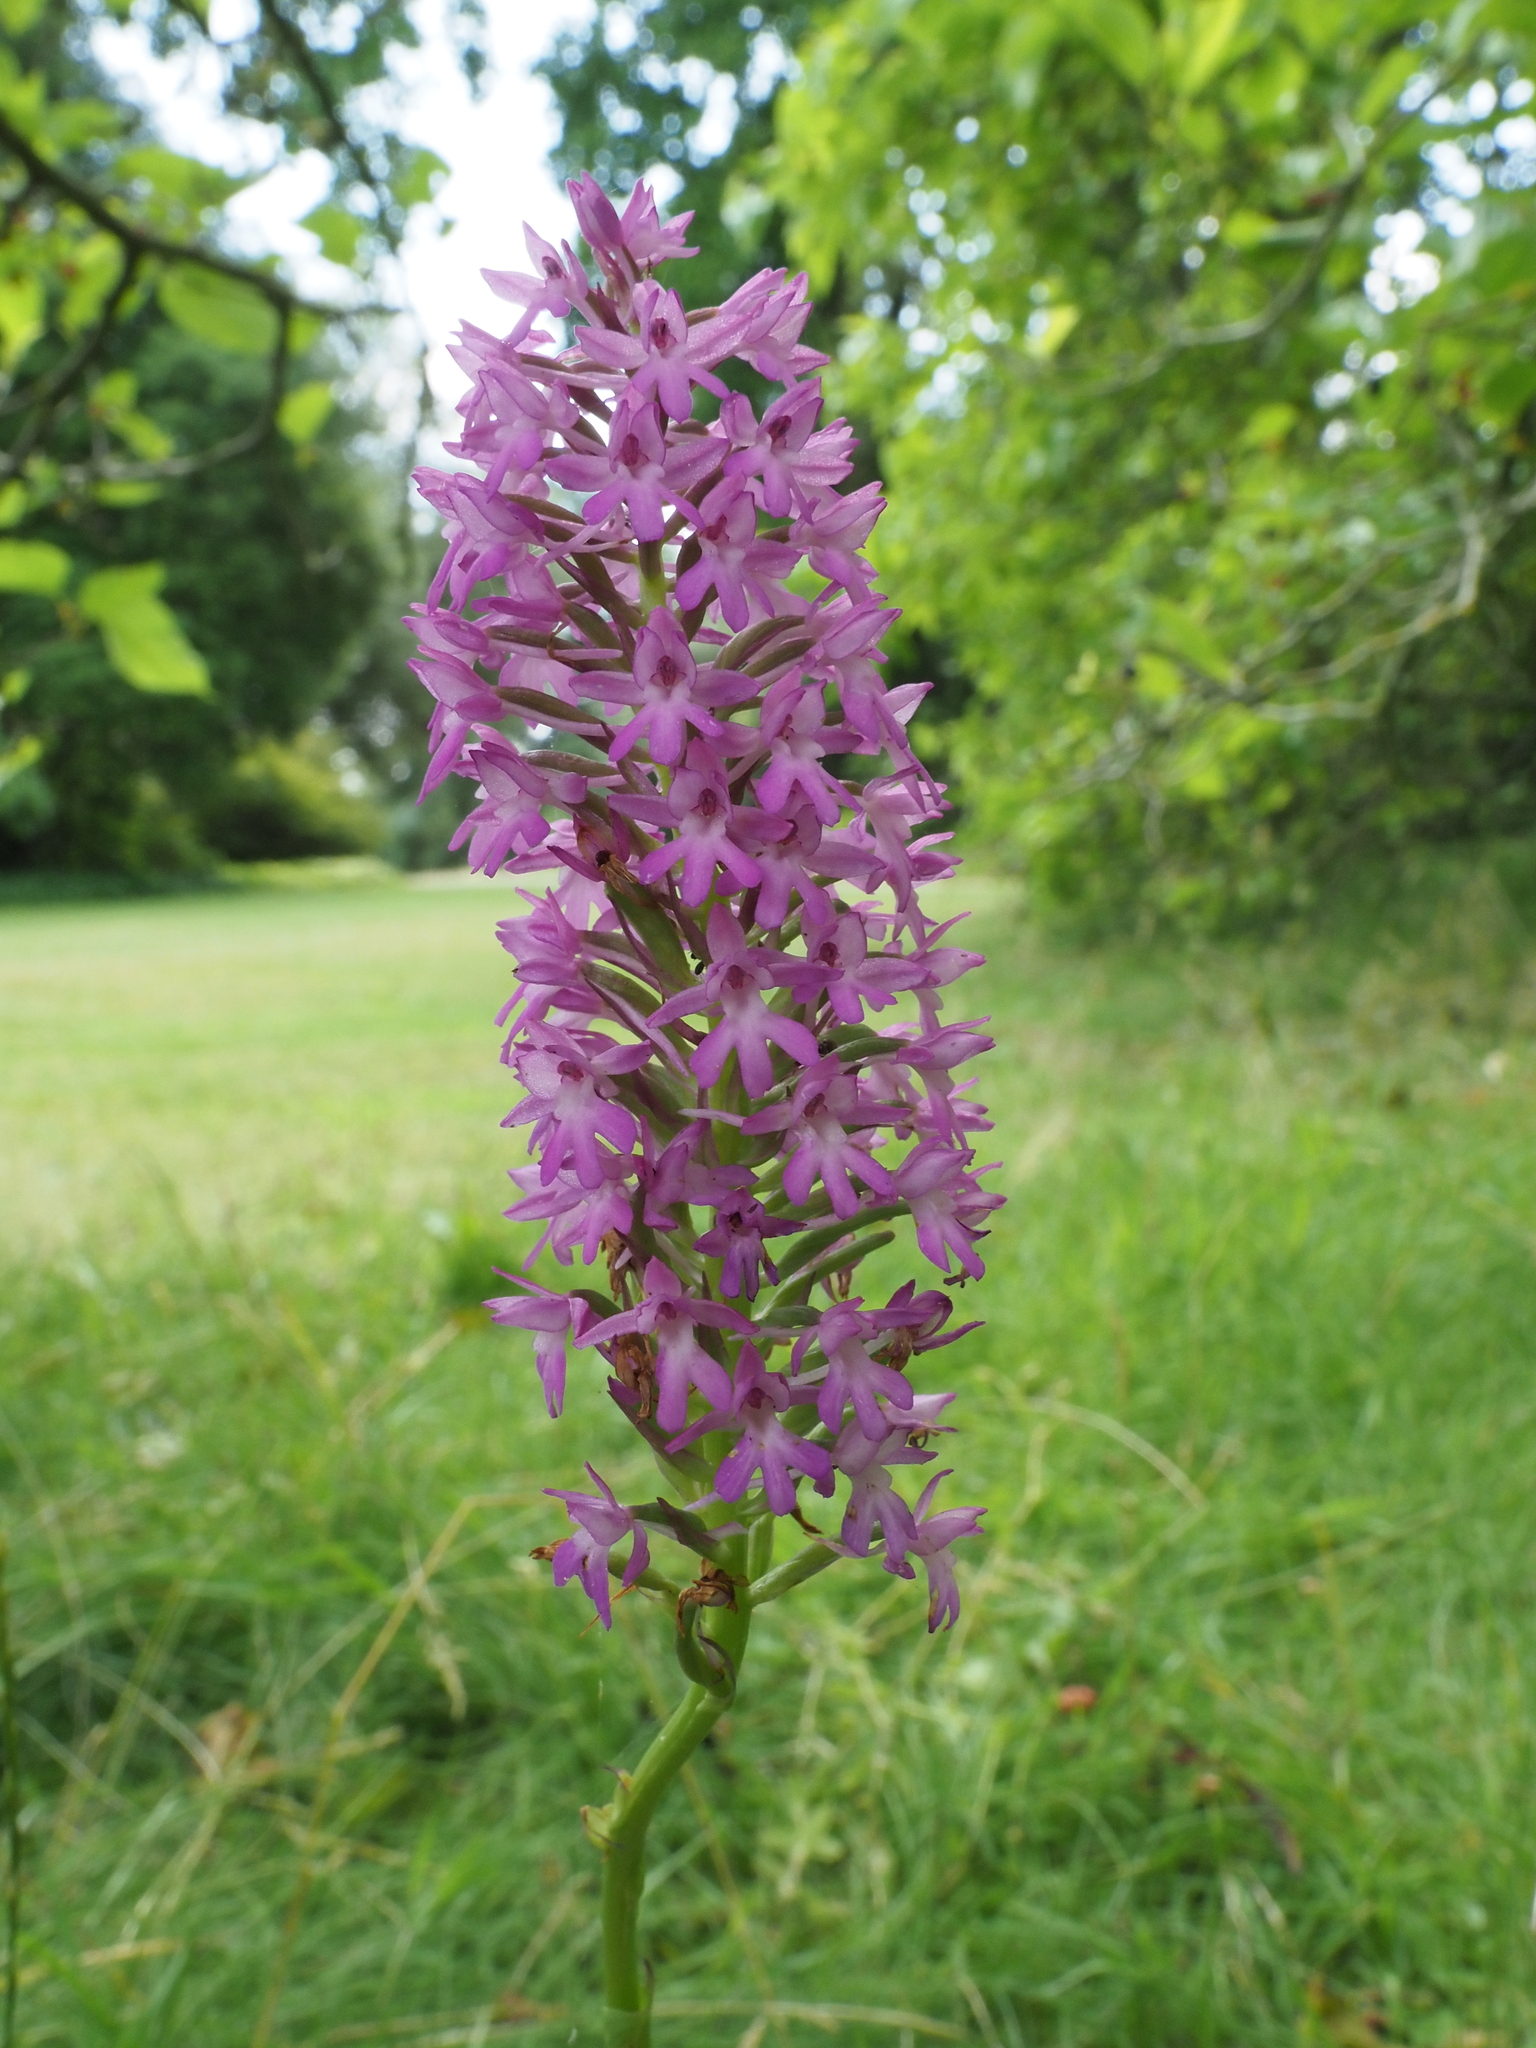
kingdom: Plantae
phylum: Tracheophyta
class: Liliopsida
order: Asparagales
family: Orchidaceae
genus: Anacamptis
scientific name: Anacamptis pyramidalis
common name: Pyramidal orchid
